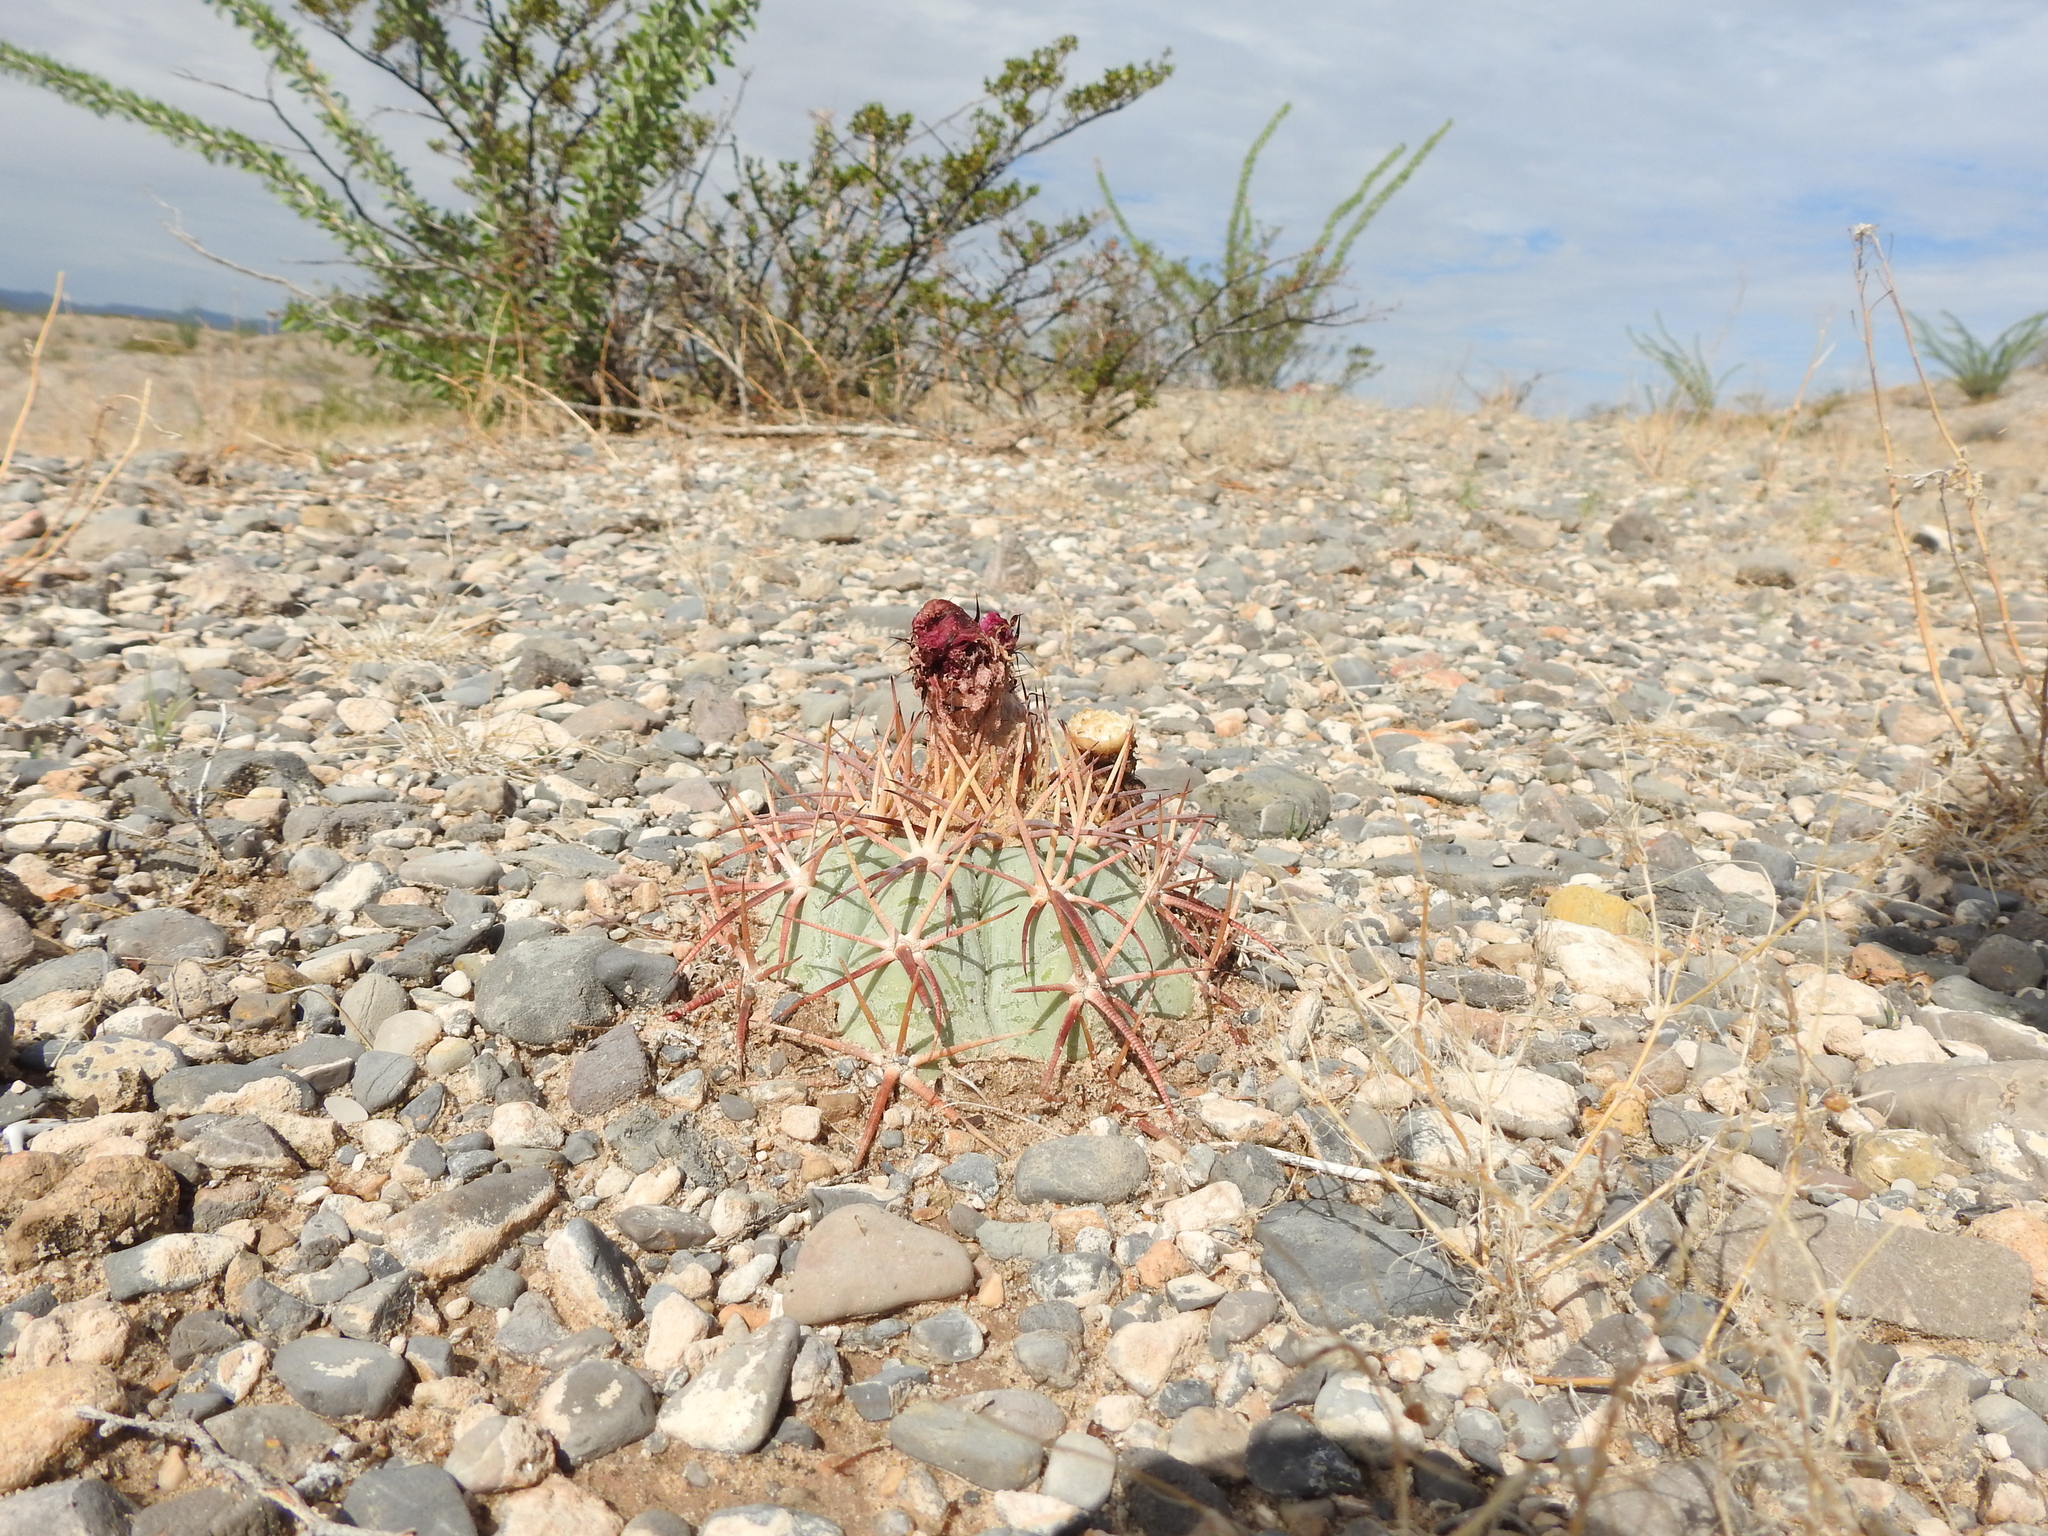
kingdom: Plantae
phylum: Tracheophyta
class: Magnoliopsida
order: Caryophyllales
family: Cactaceae
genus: Echinocactus
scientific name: Echinocactus horizonthalonius
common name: Devilshead
